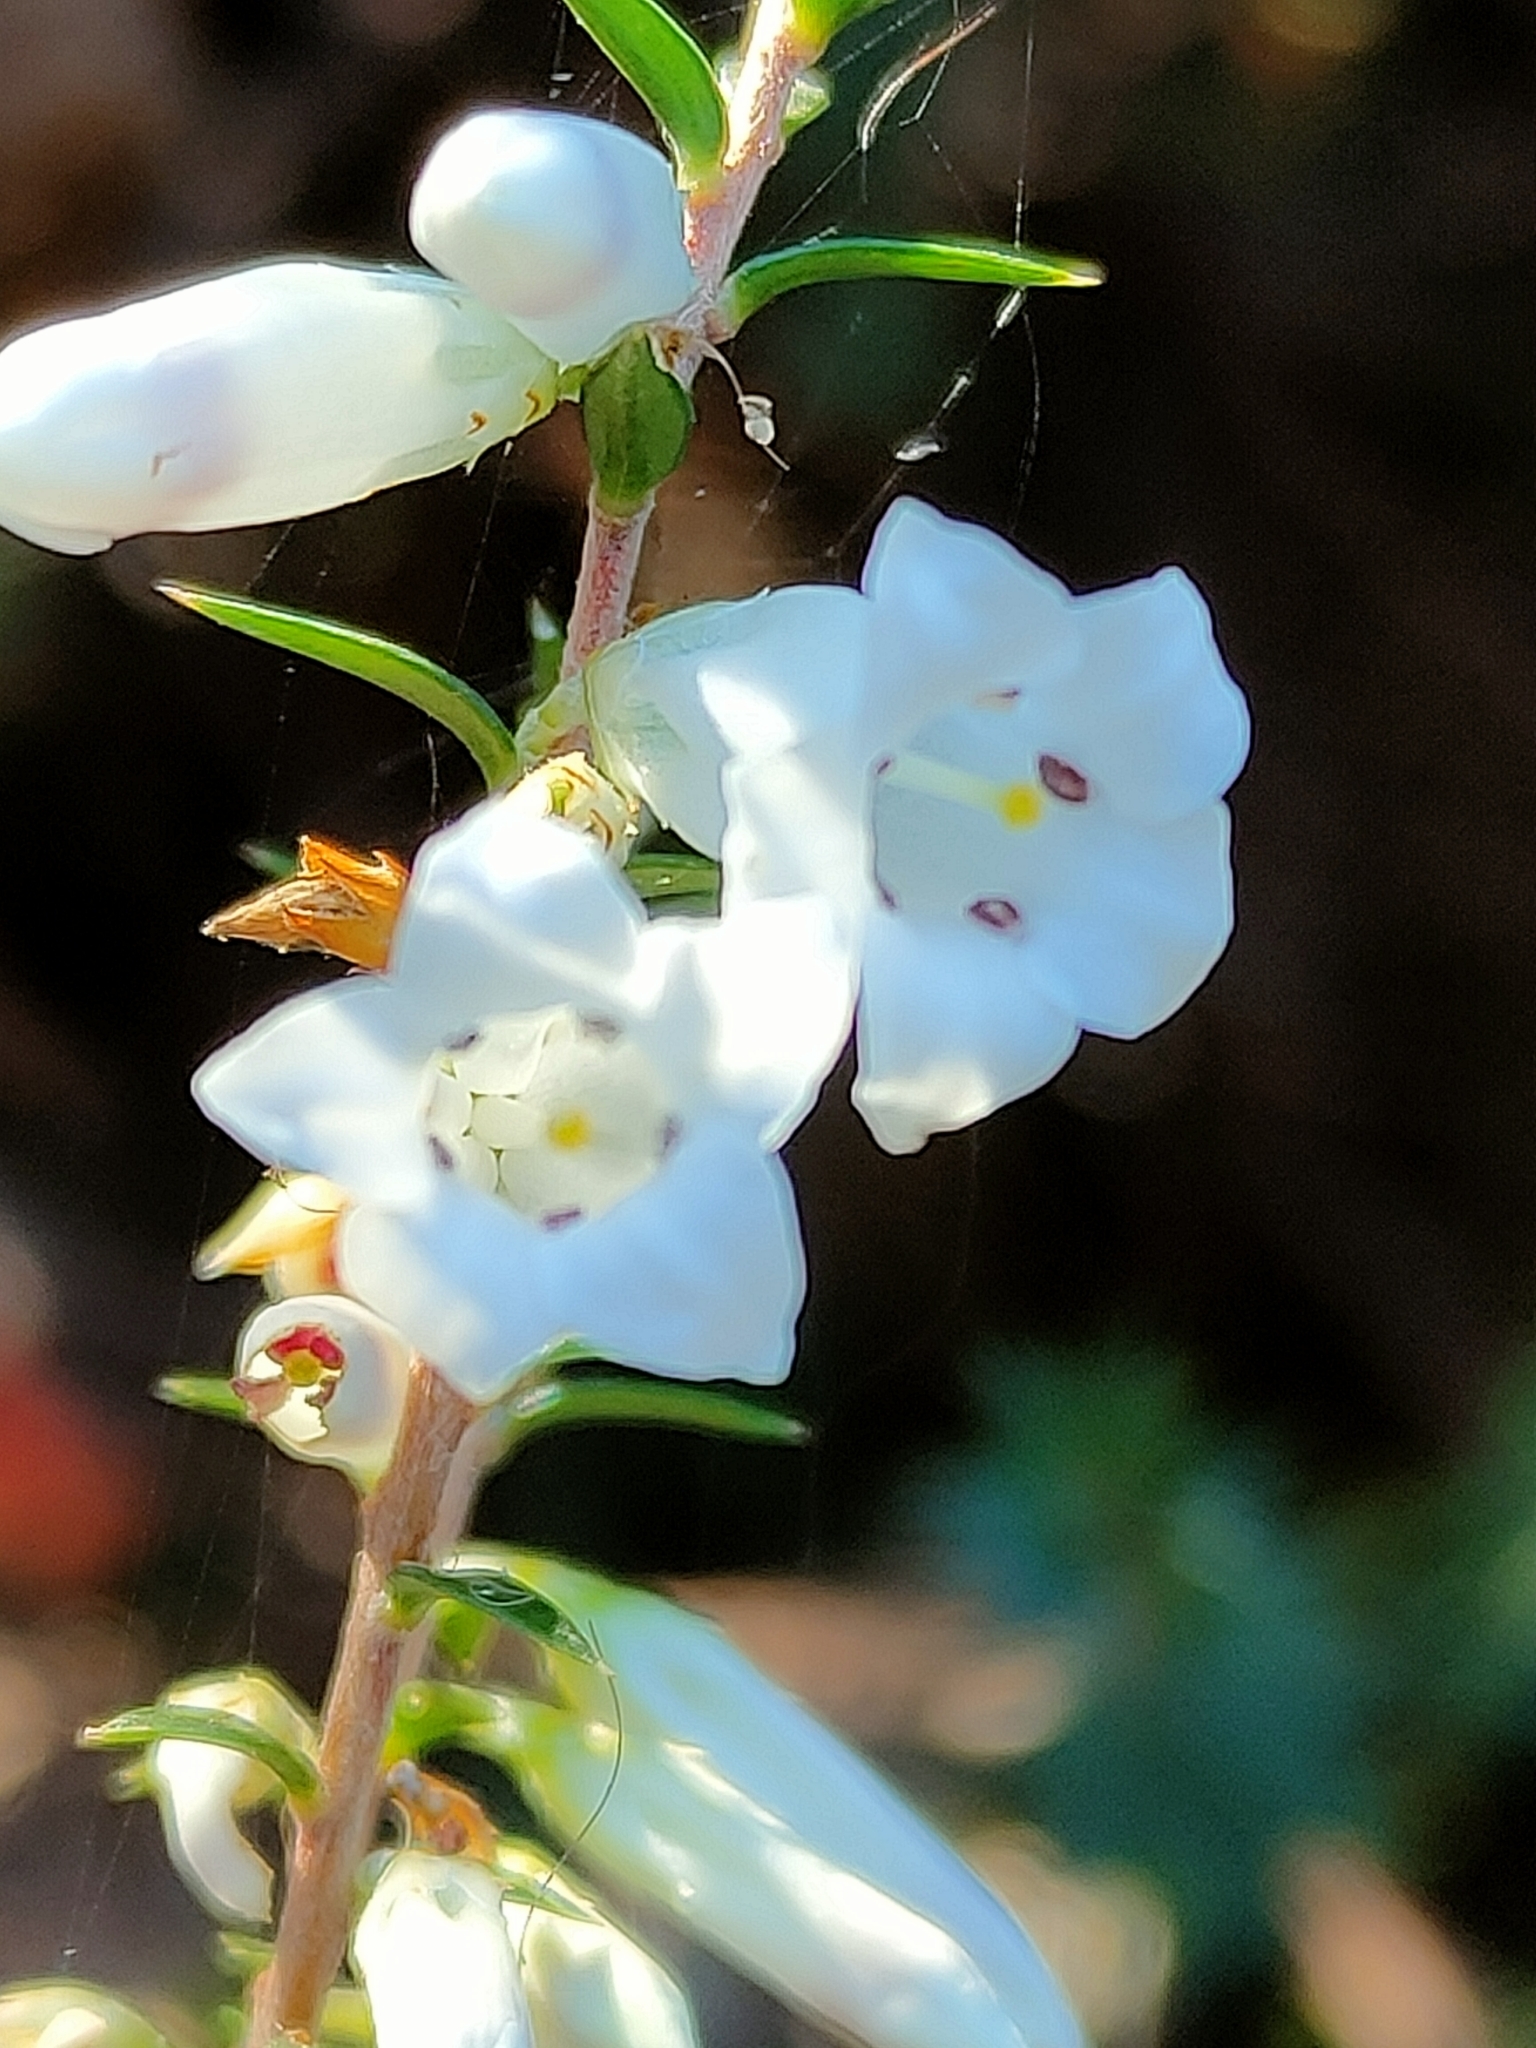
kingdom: Plantae
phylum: Tracheophyta
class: Magnoliopsida
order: Ericales
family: Ericaceae
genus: Epacris
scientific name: Epacris impressa
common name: Common-heath
